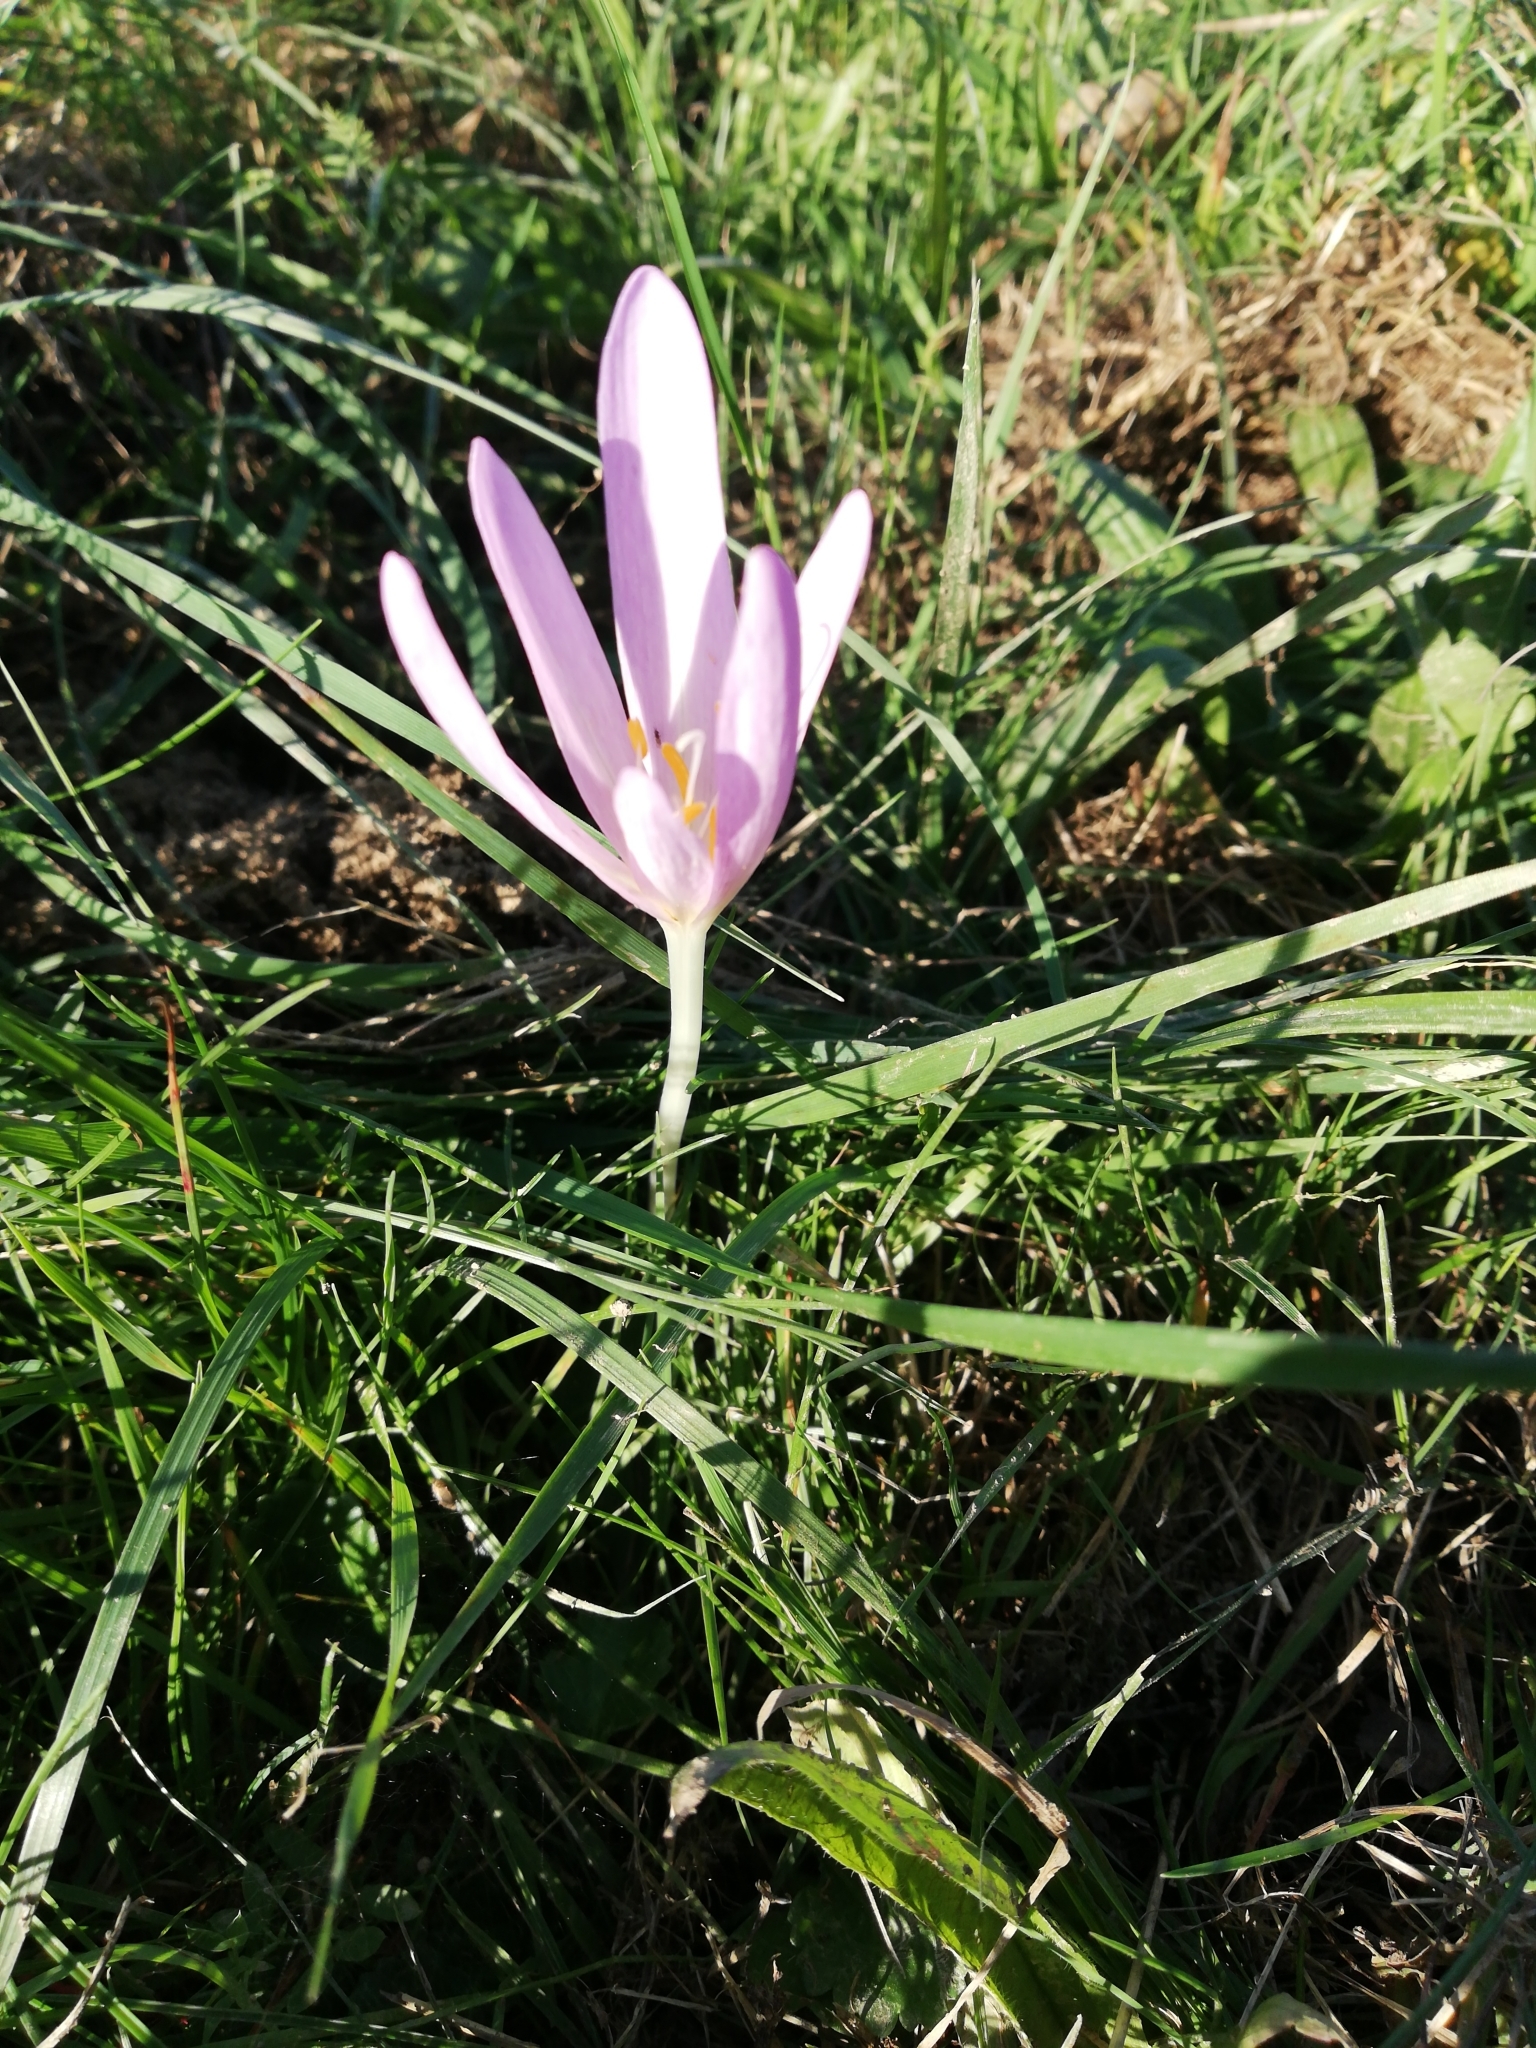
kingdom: Plantae
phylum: Tracheophyta
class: Liliopsida
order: Liliales
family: Colchicaceae
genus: Colchicum
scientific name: Colchicum autumnale
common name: Autumn crocus
